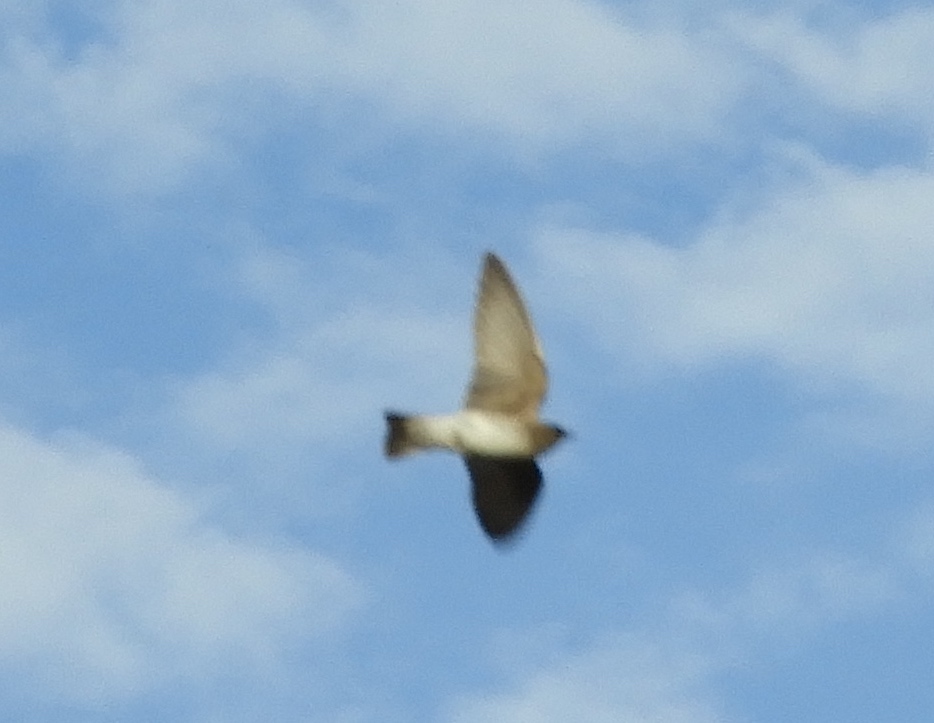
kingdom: Animalia
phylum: Chordata
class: Aves
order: Passeriformes
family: Hirundinidae
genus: Stelgidopteryx
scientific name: Stelgidopteryx serripennis
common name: Northern rough-winged swallow
